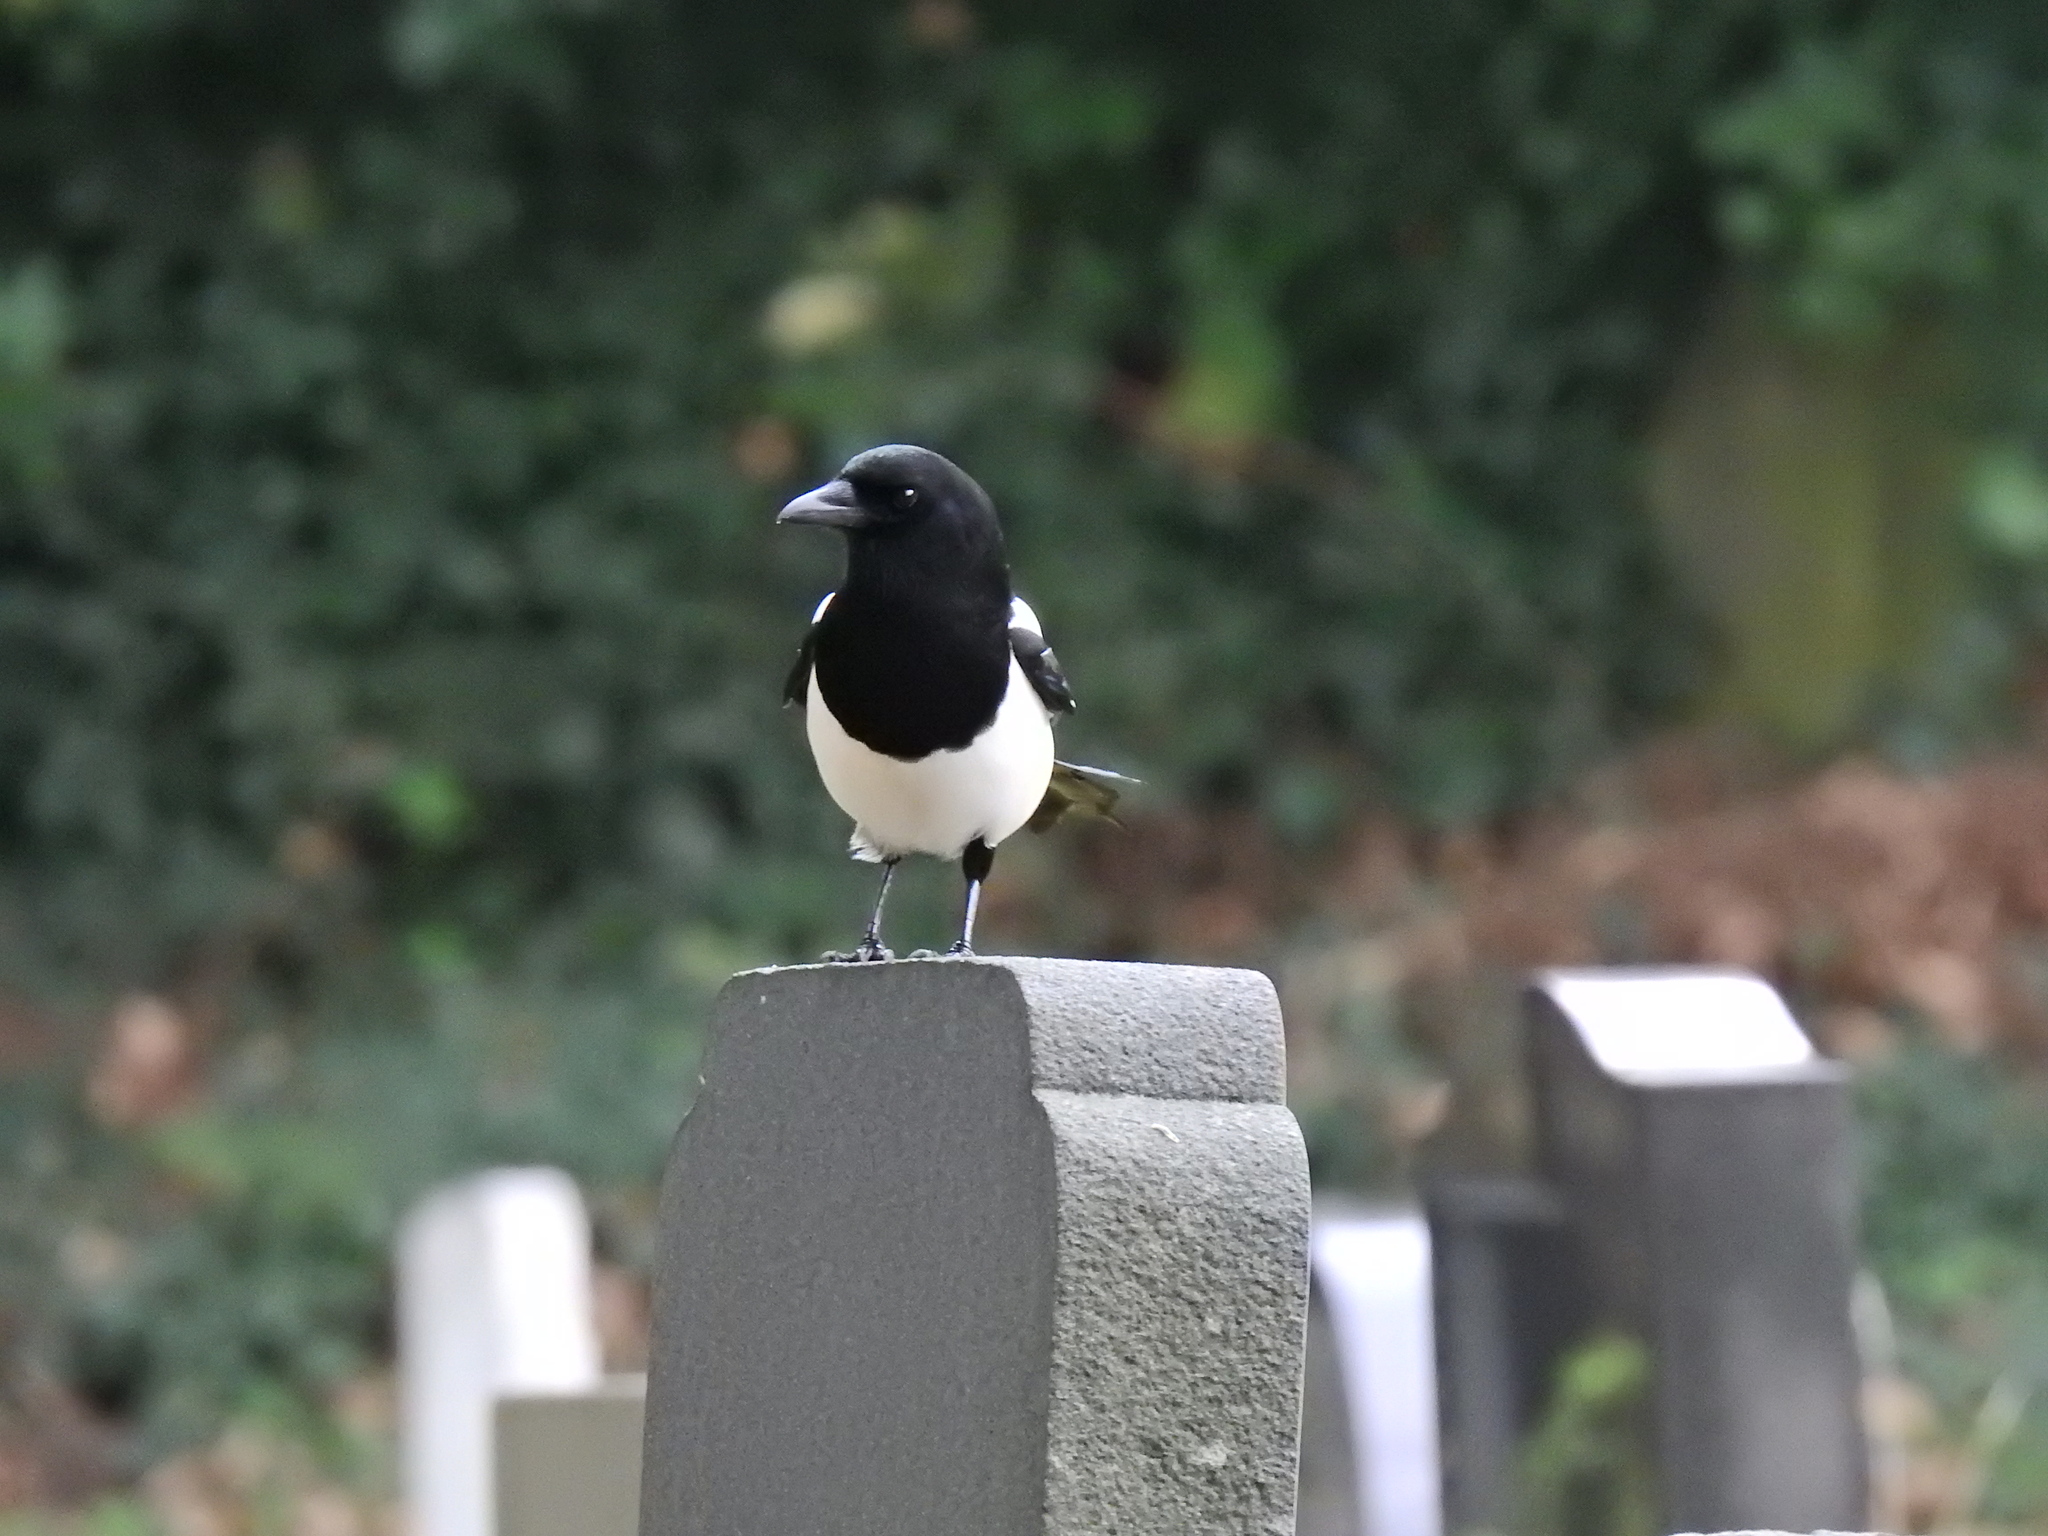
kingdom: Animalia
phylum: Chordata
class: Aves
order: Passeriformes
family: Corvidae
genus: Pica
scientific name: Pica pica
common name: Eurasian magpie
